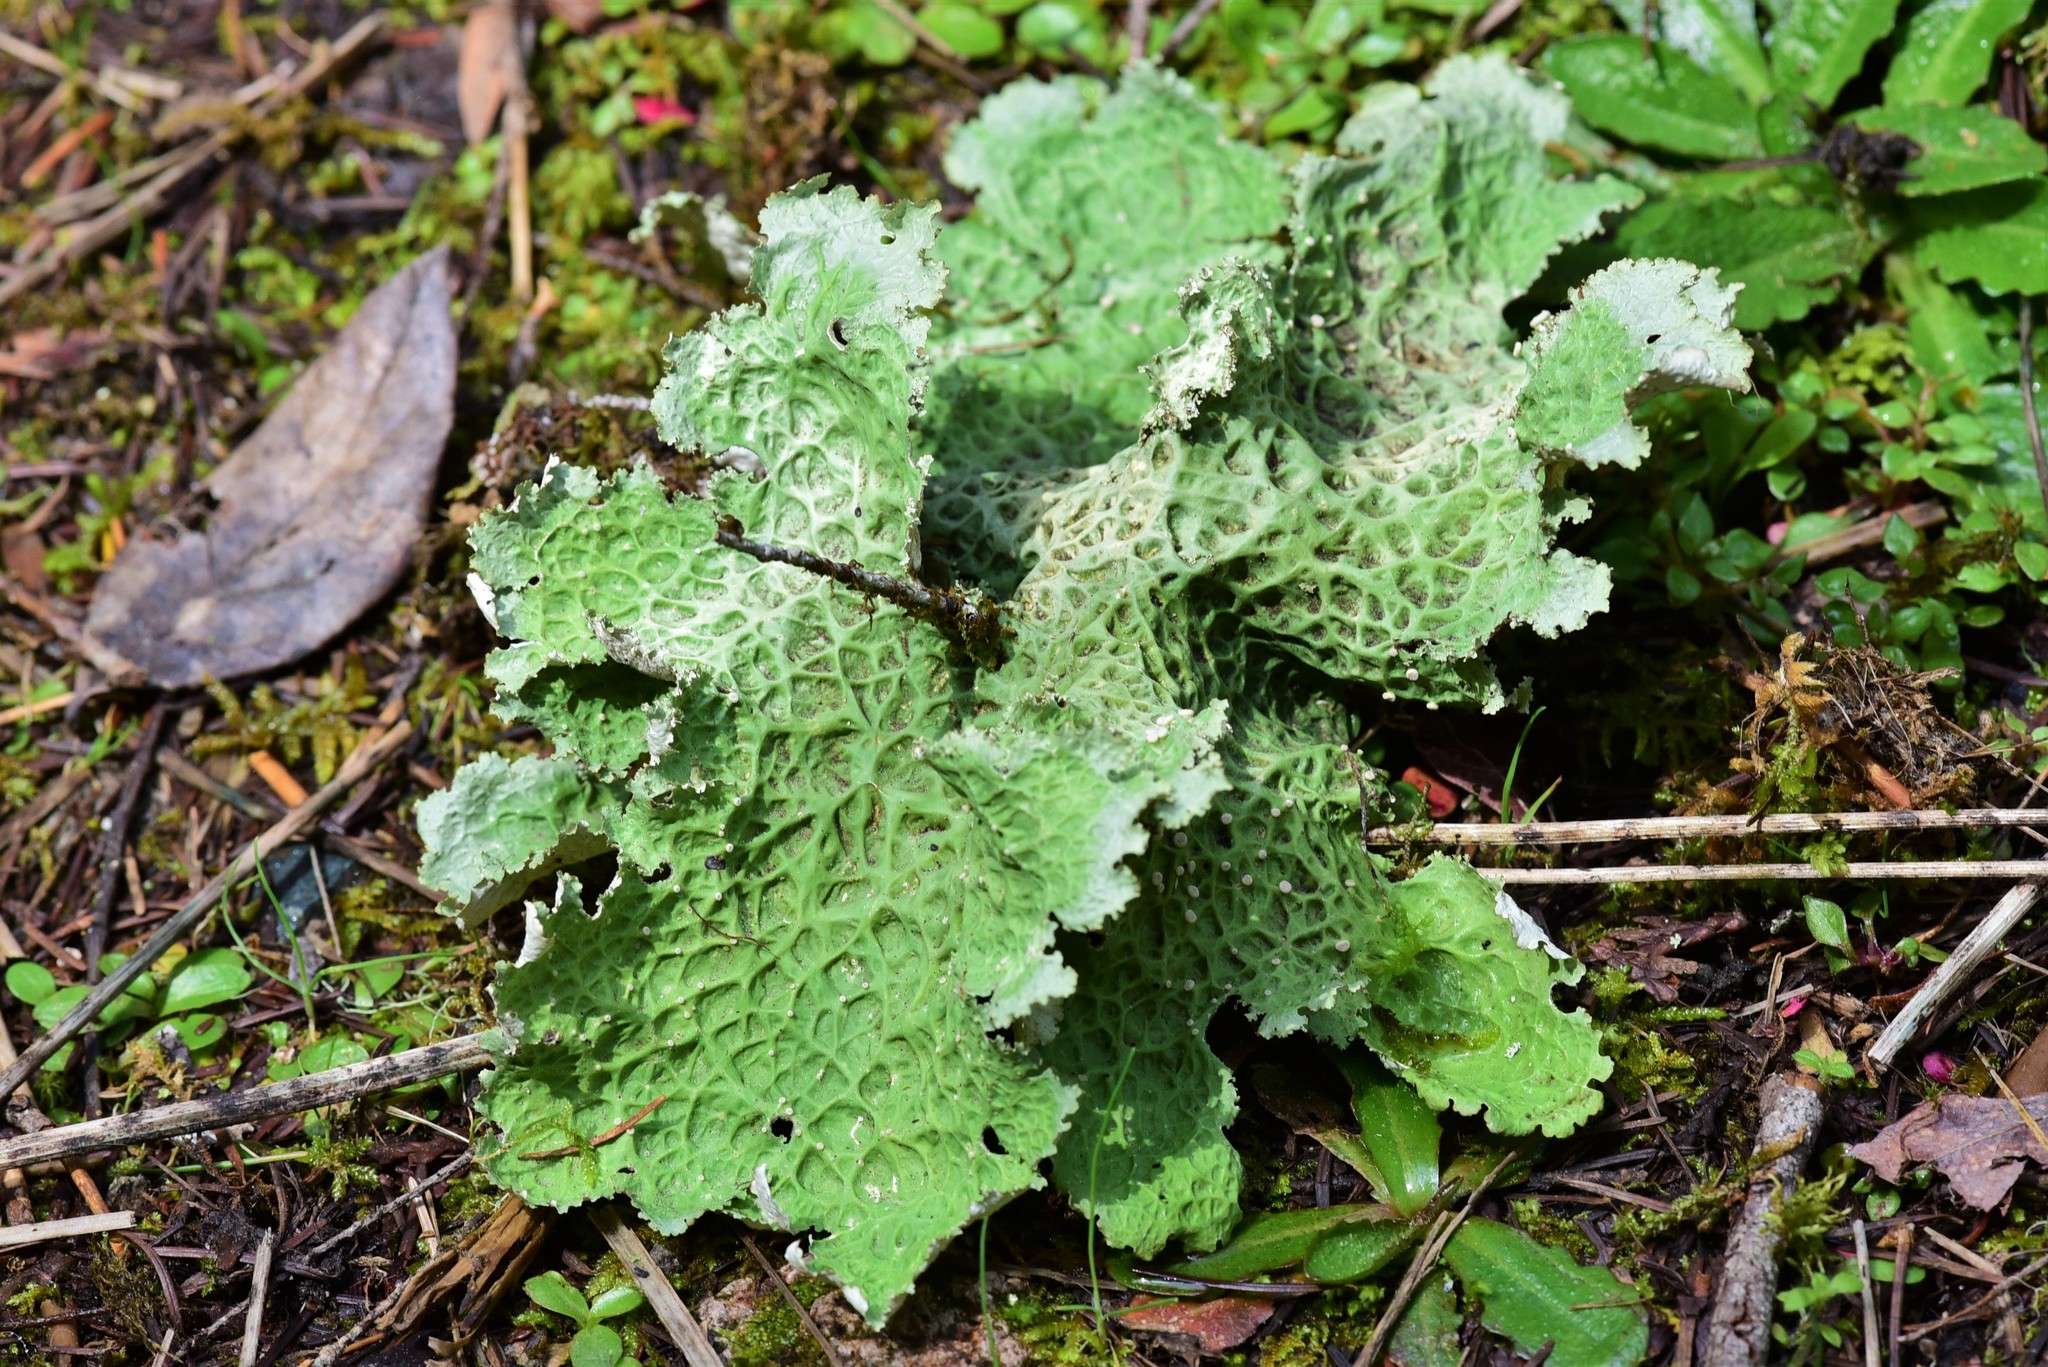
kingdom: Fungi
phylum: Ascomycota
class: Lecanoromycetes
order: Peltigerales
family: Lobariaceae
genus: Lobaria
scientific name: Lobaria oregana
